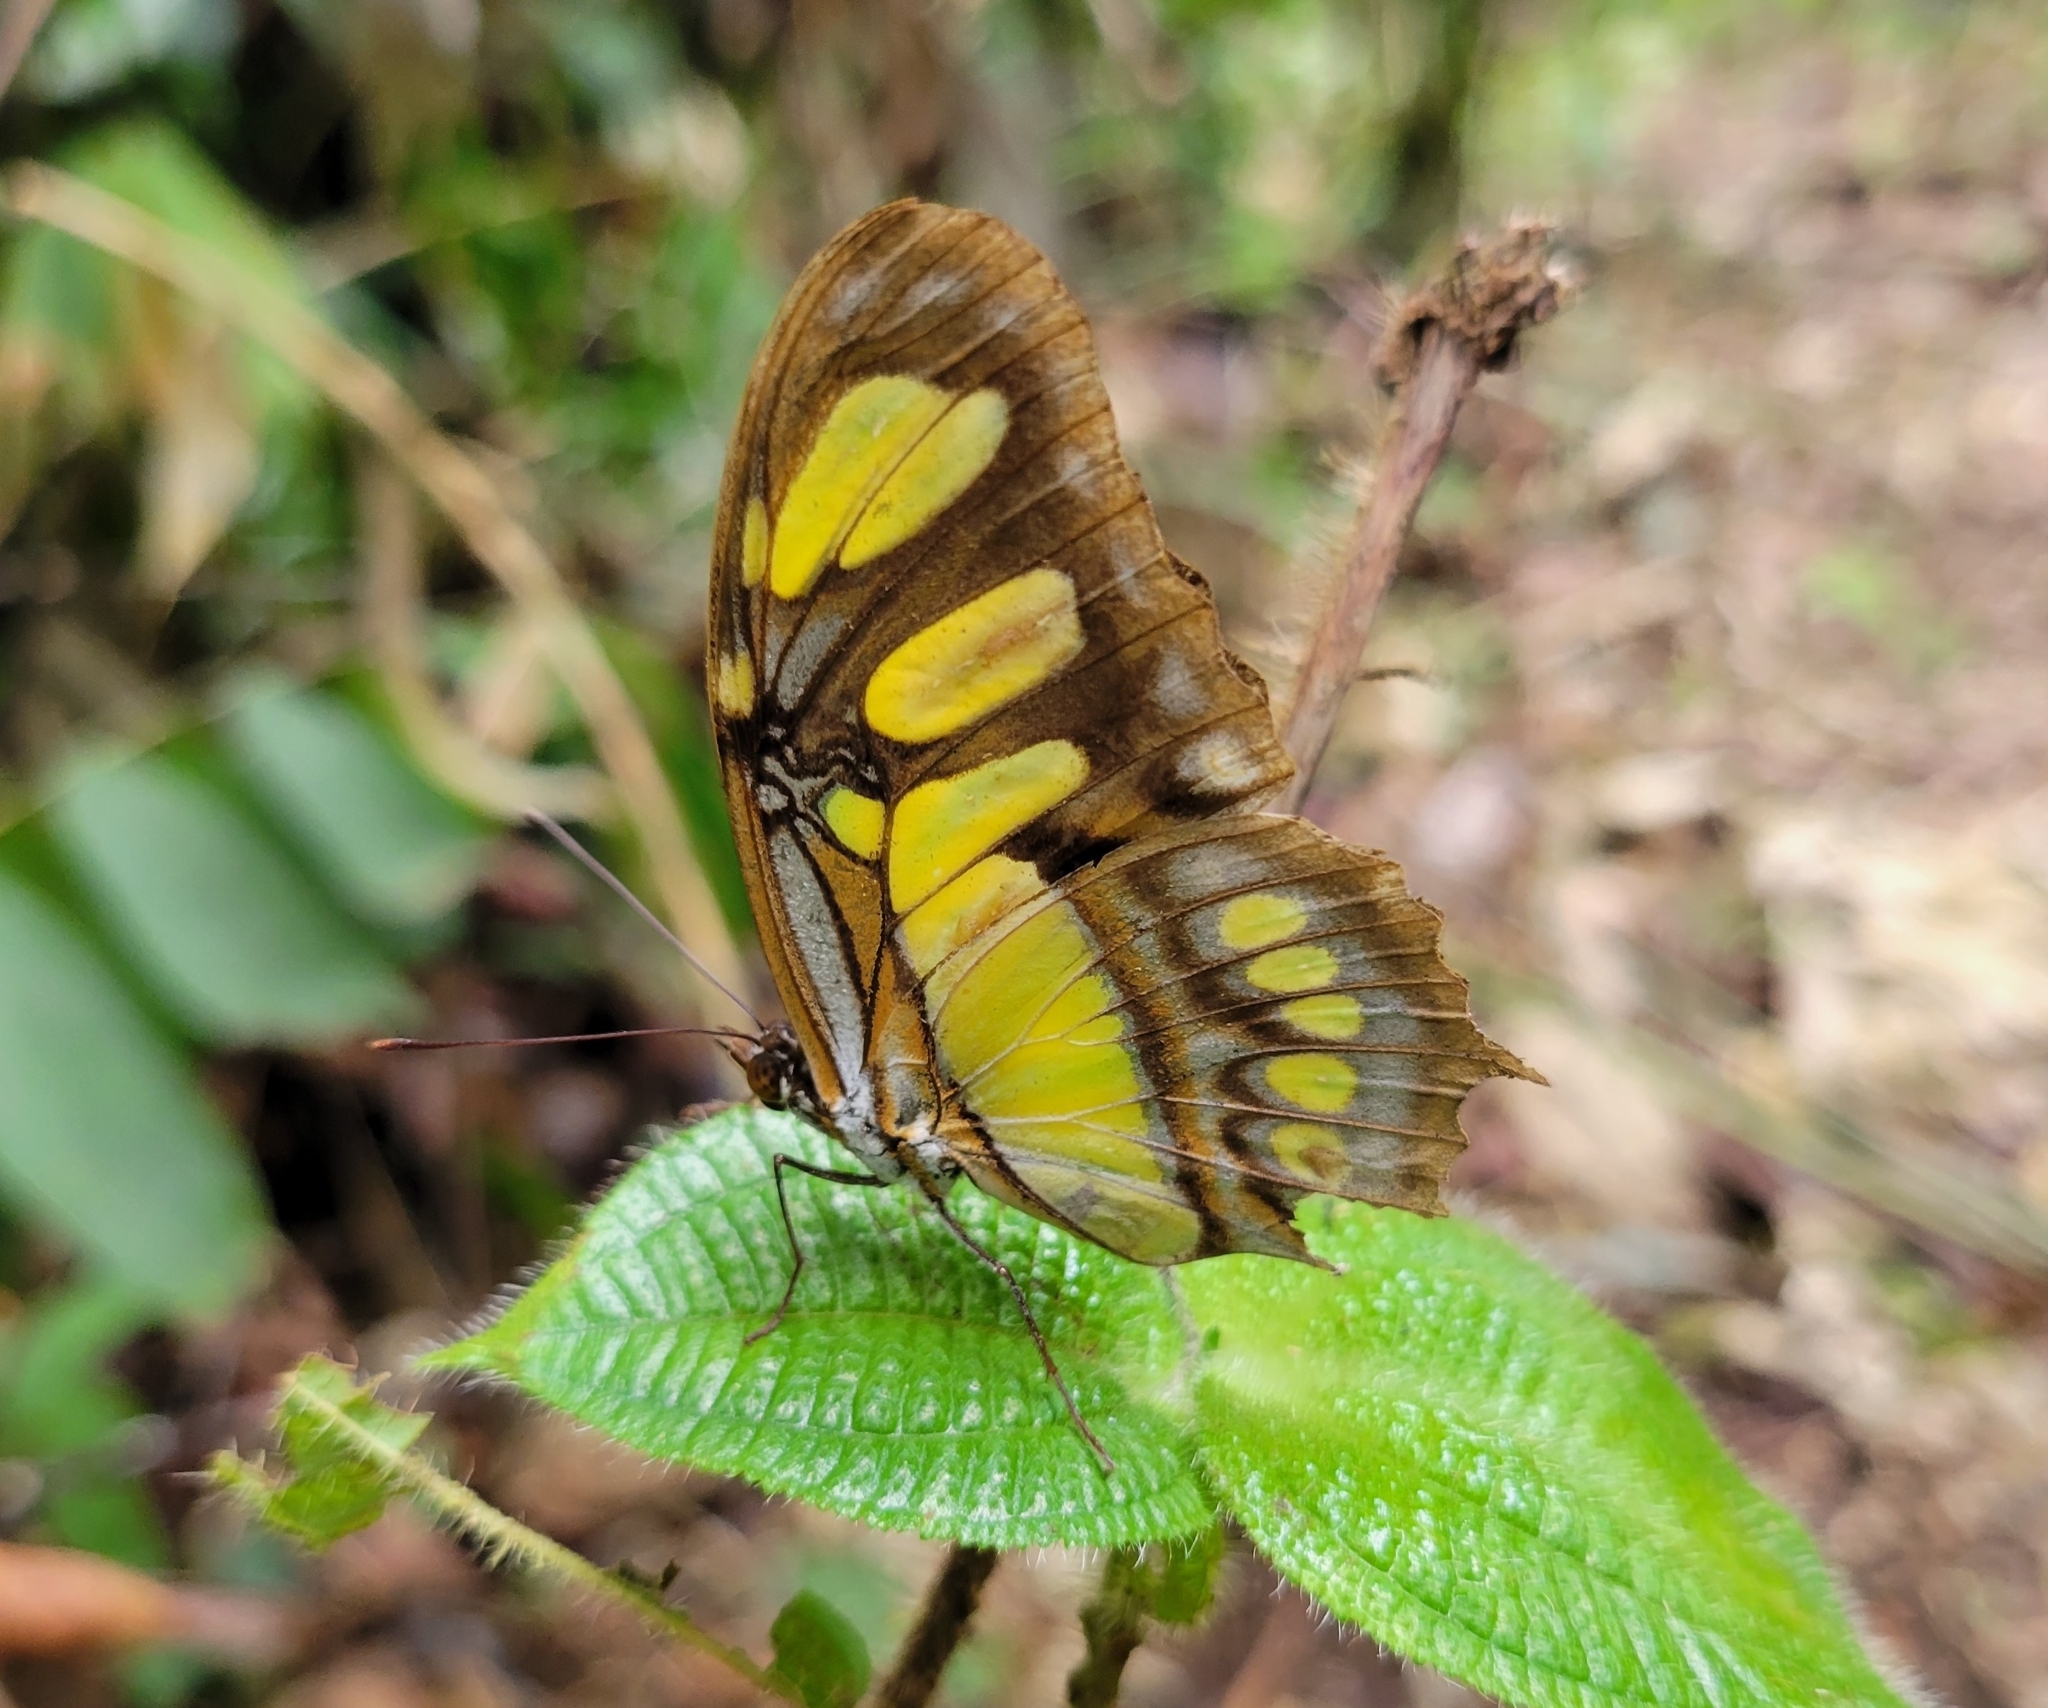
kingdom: Animalia
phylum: Arthropoda
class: Insecta
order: Lepidoptera
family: Nymphalidae
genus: Siproeta
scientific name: Siproeta stelenes
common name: Malachite
